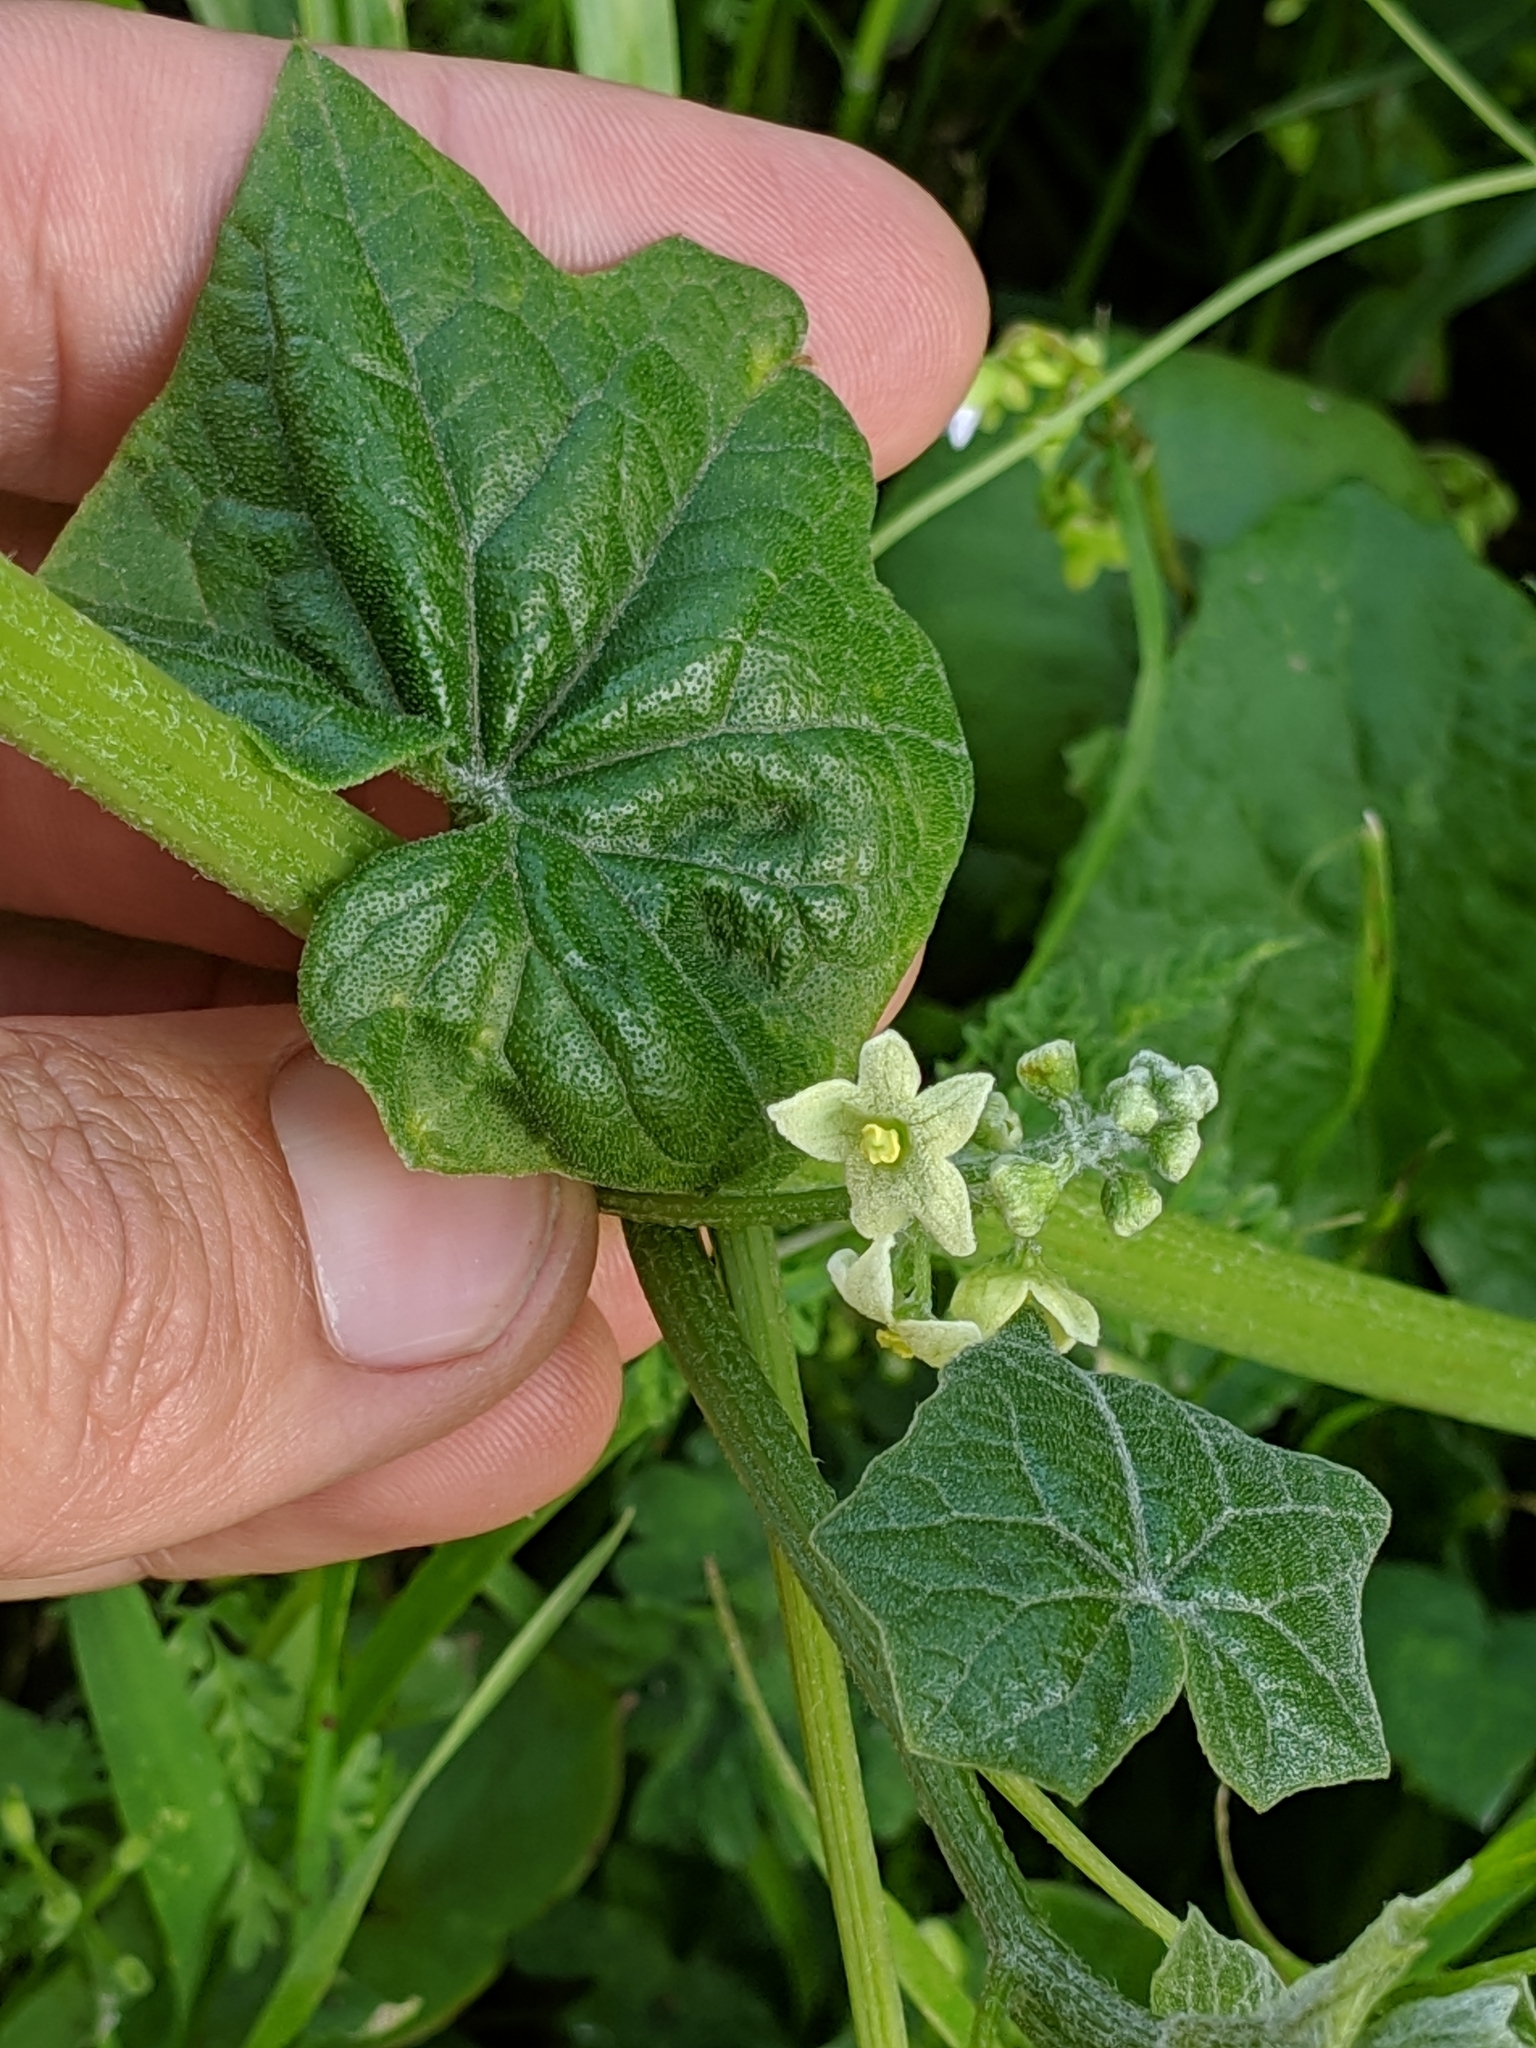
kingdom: Plantae
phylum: Tracheophyta
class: Magnoliopsida
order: Cucurbitales
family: Cucurbitaceae
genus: Marah
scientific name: Marah fabacea
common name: California manroot
